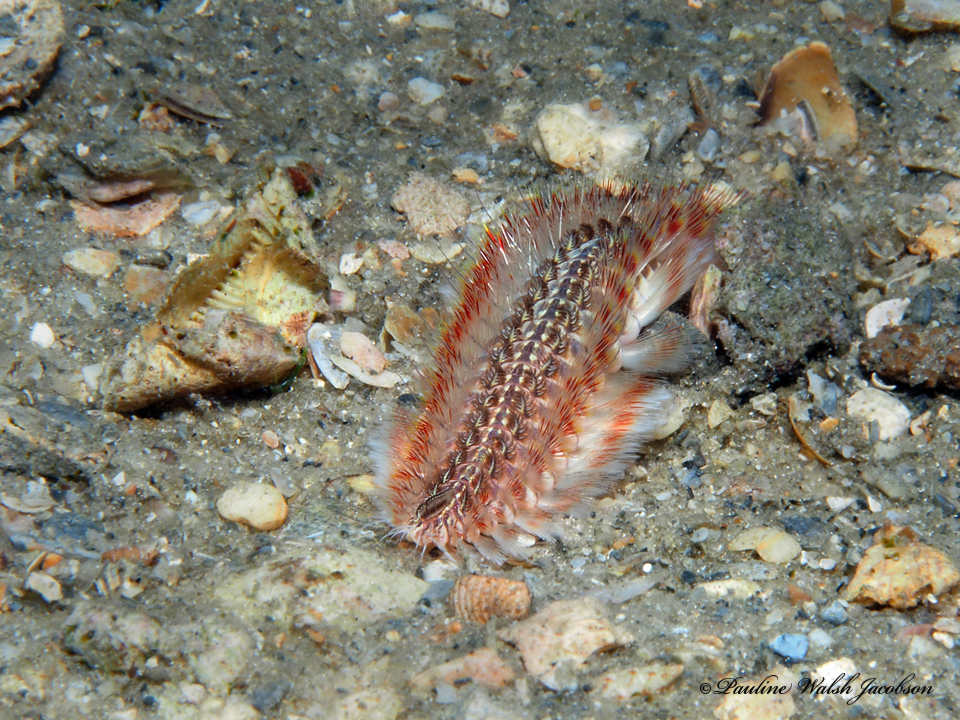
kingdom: Animalia
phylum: Annelida
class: Polychaeta
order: Amphinomida
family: Amphinomidae
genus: Chloeia
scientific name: Chloeia euglochis
